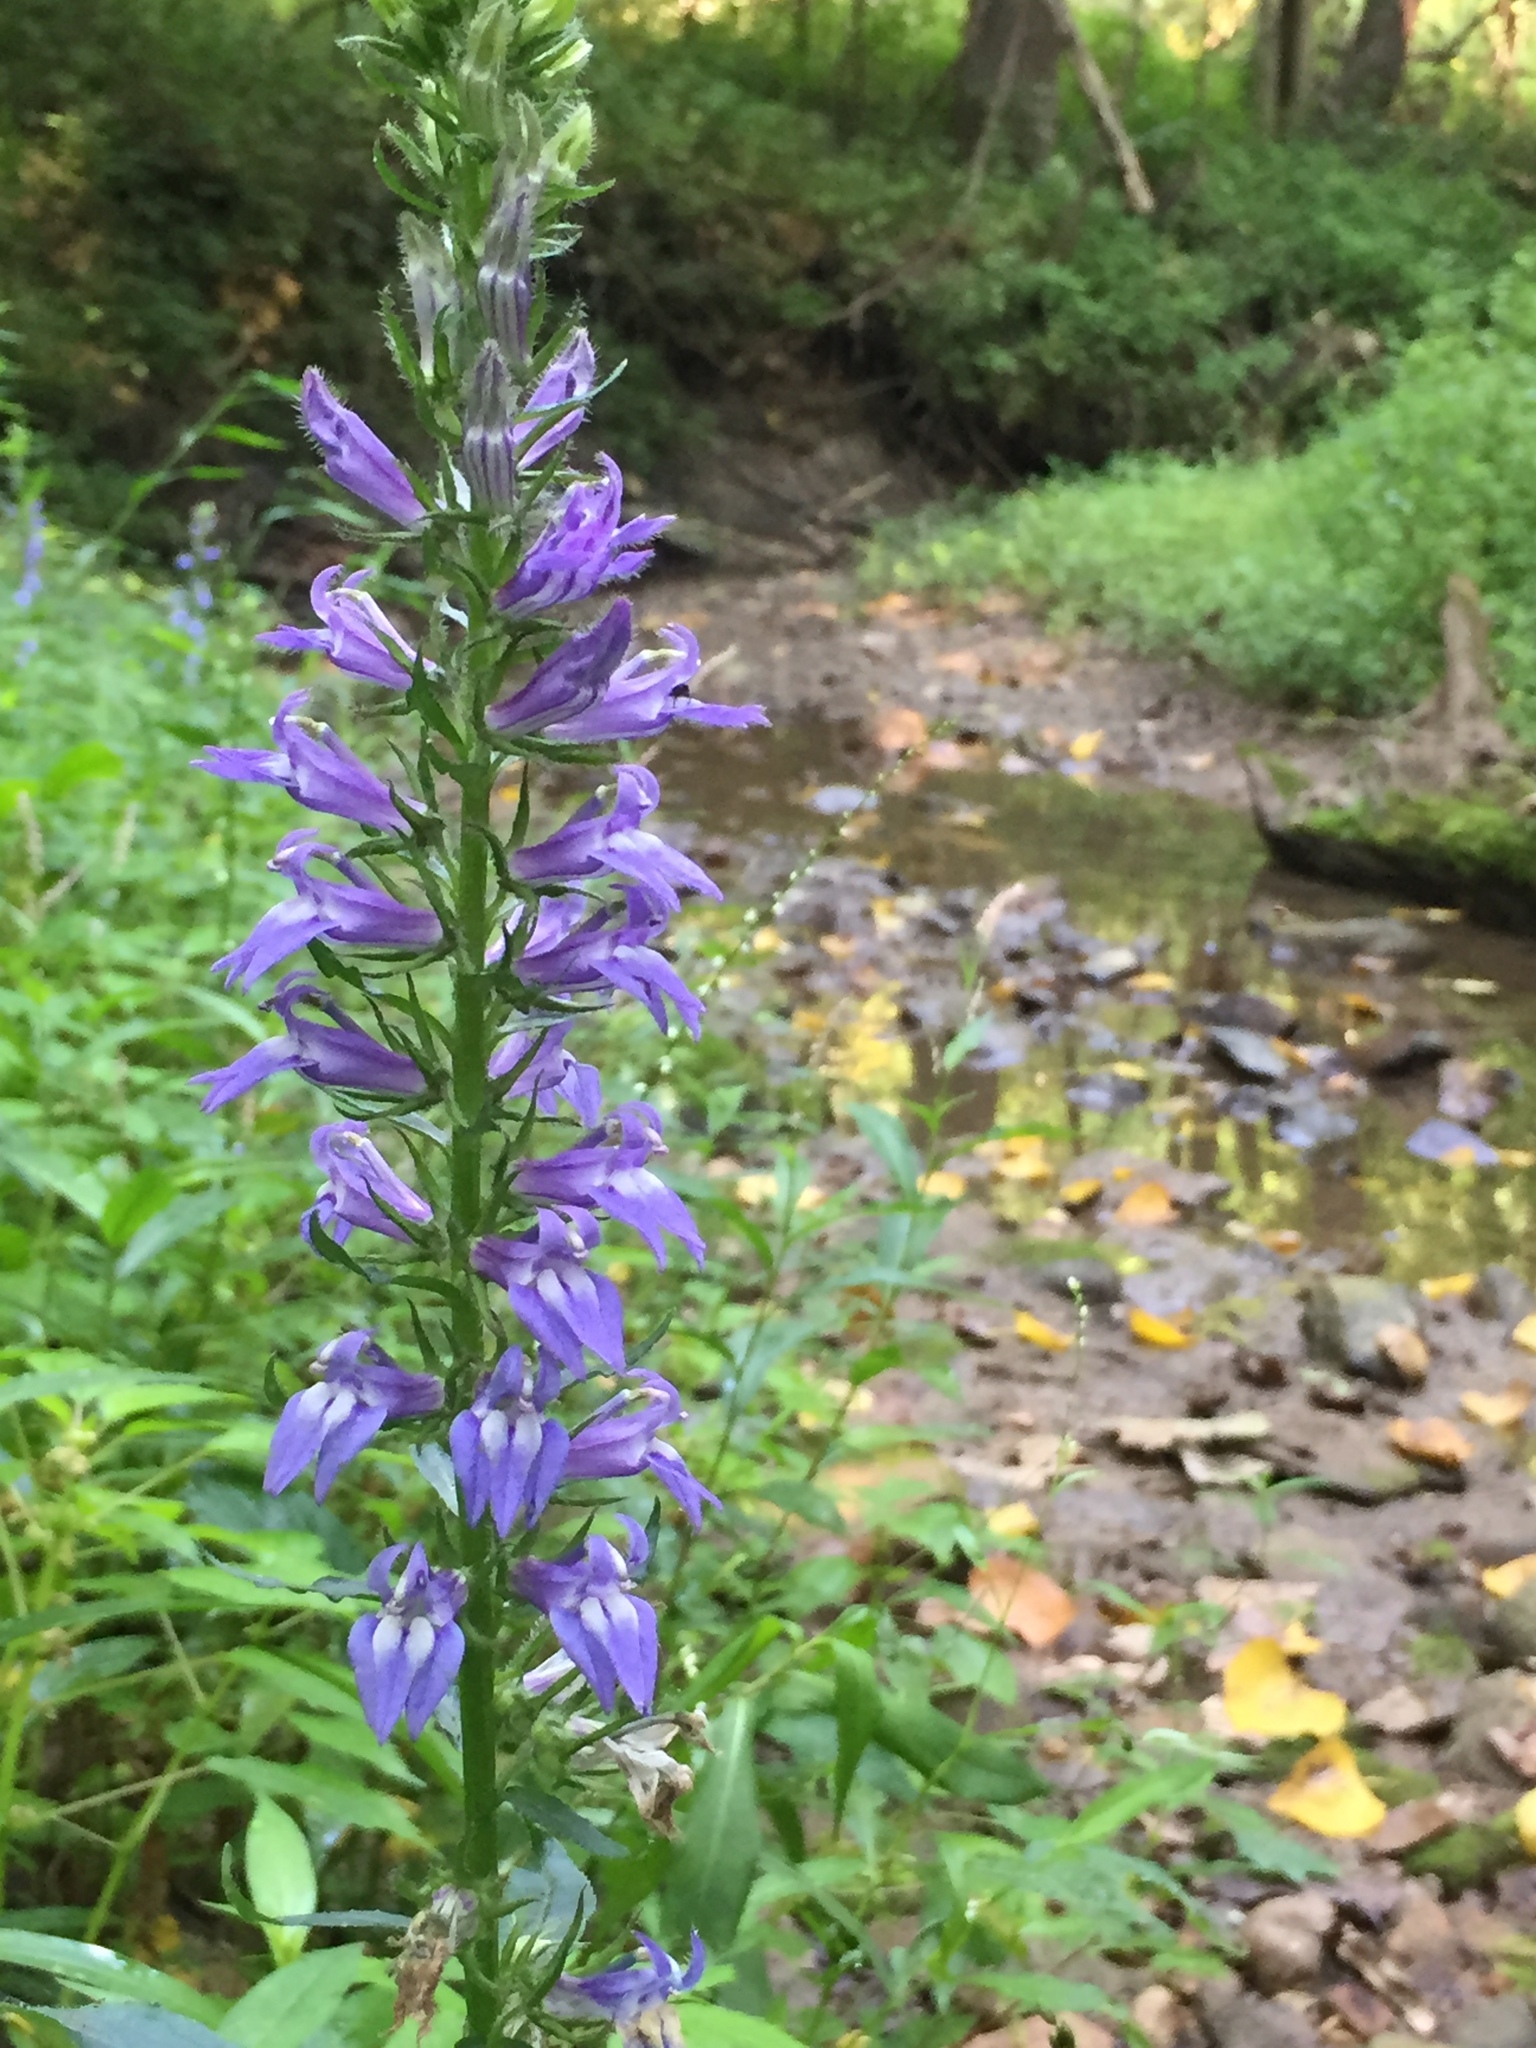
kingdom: Plantae
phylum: Tracheophyta
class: Magnoliopsida
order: Asterales
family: Campanulaceae
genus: Lobelia
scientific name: Lobelia siphilitica
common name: Great lobelia
